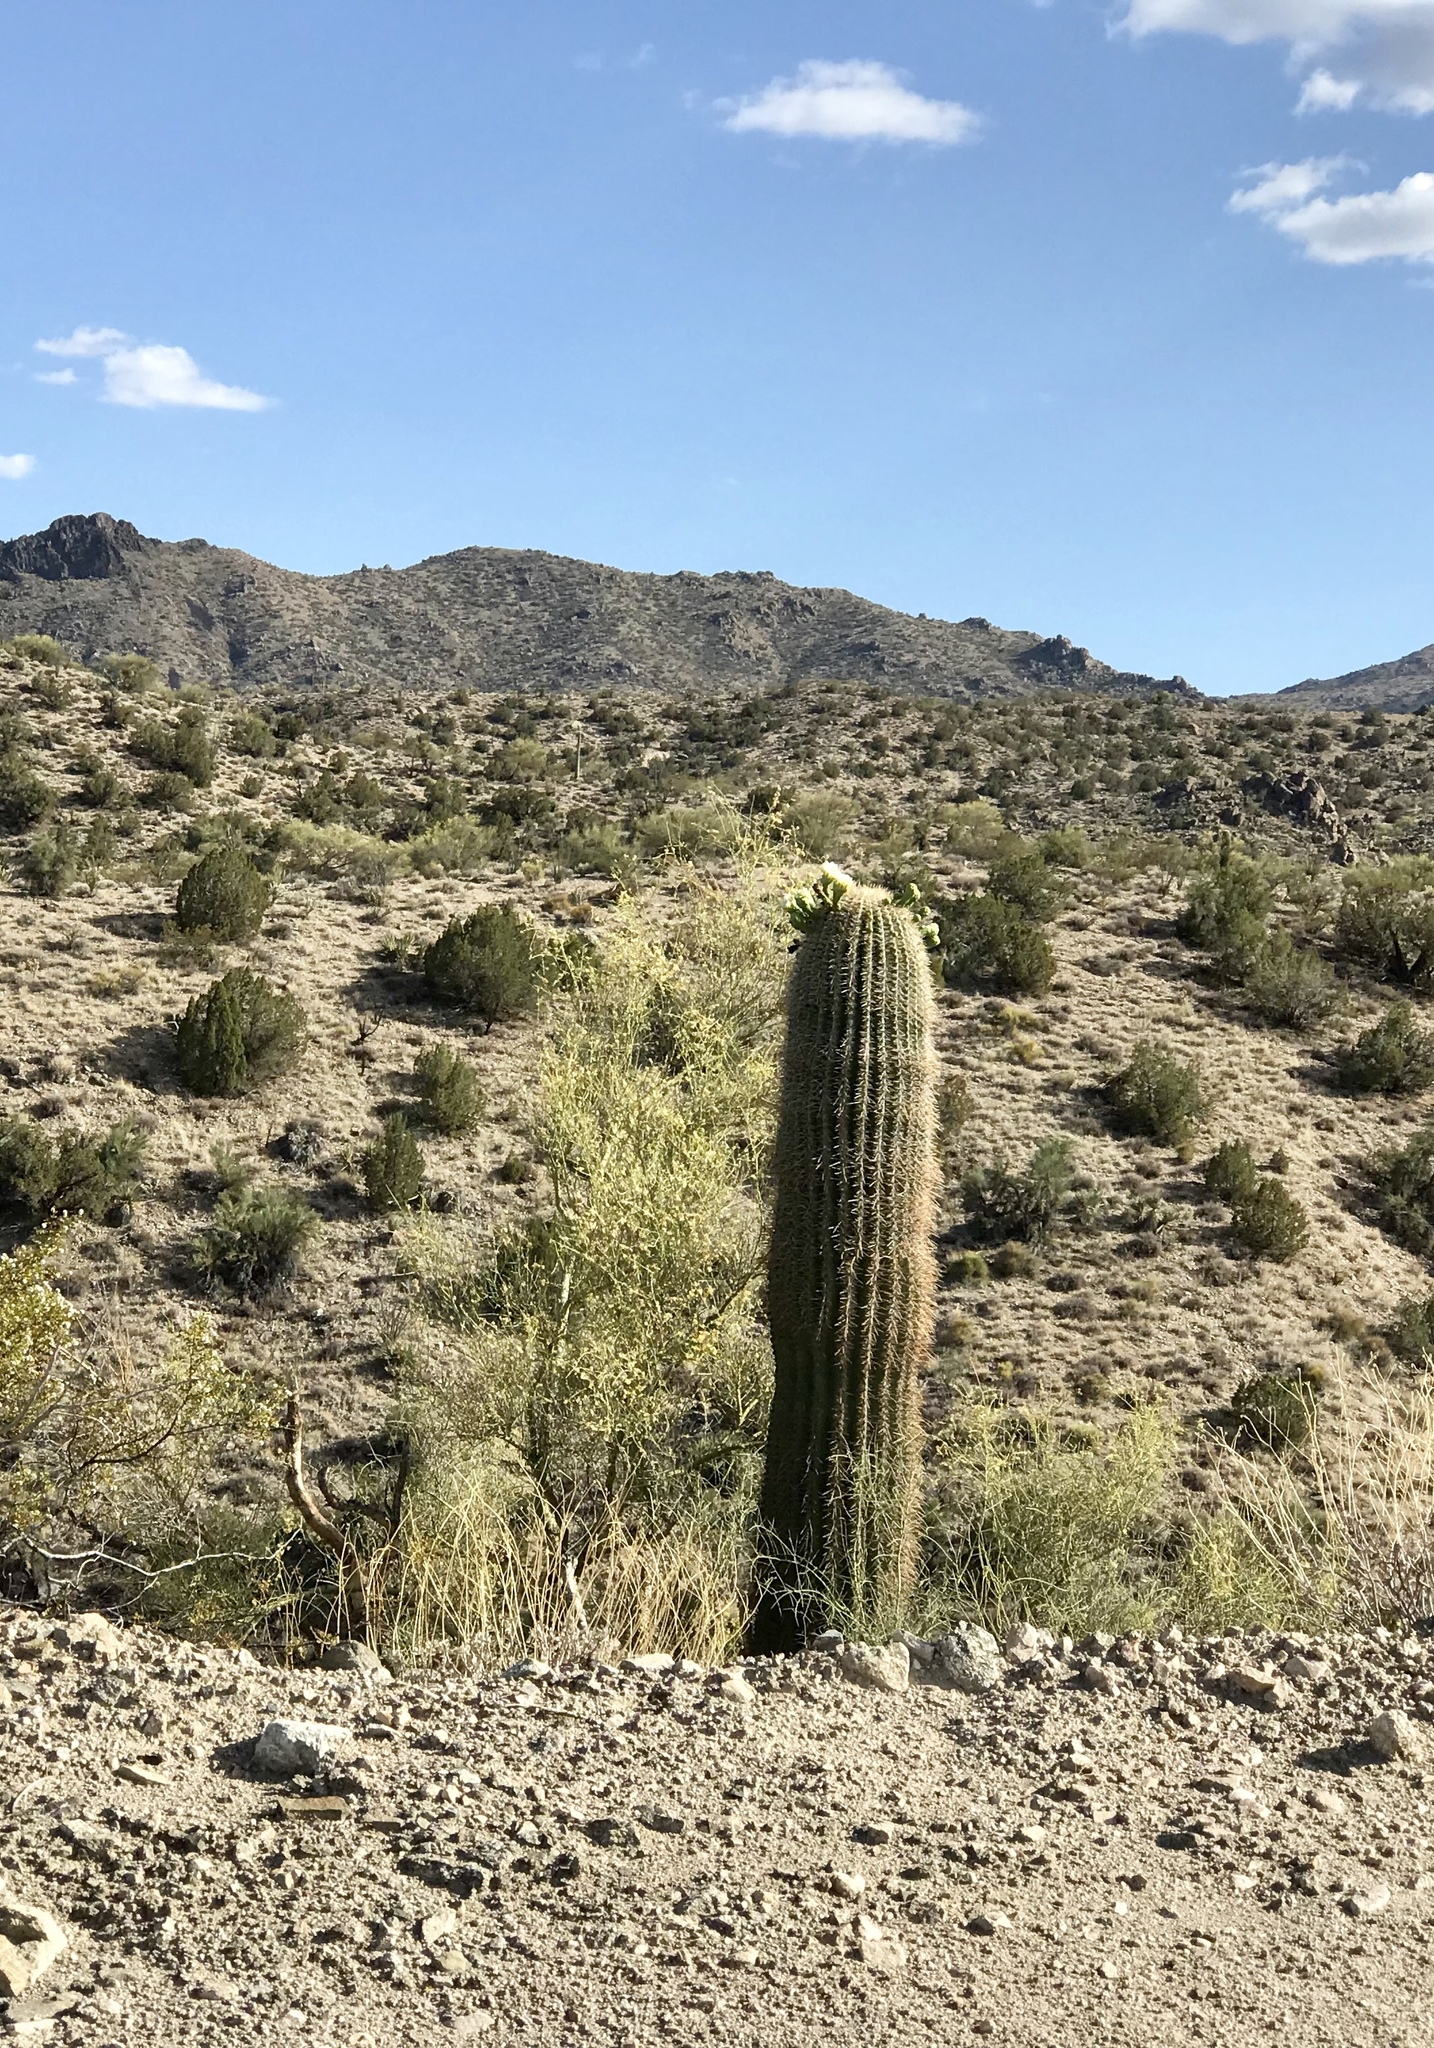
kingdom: Plantae
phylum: Tracheophyta
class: Magnoliopsida
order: Caryophyllales
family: Cactaceae
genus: Carnegiea
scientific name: Carnegiea gigantea
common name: Saguaro
